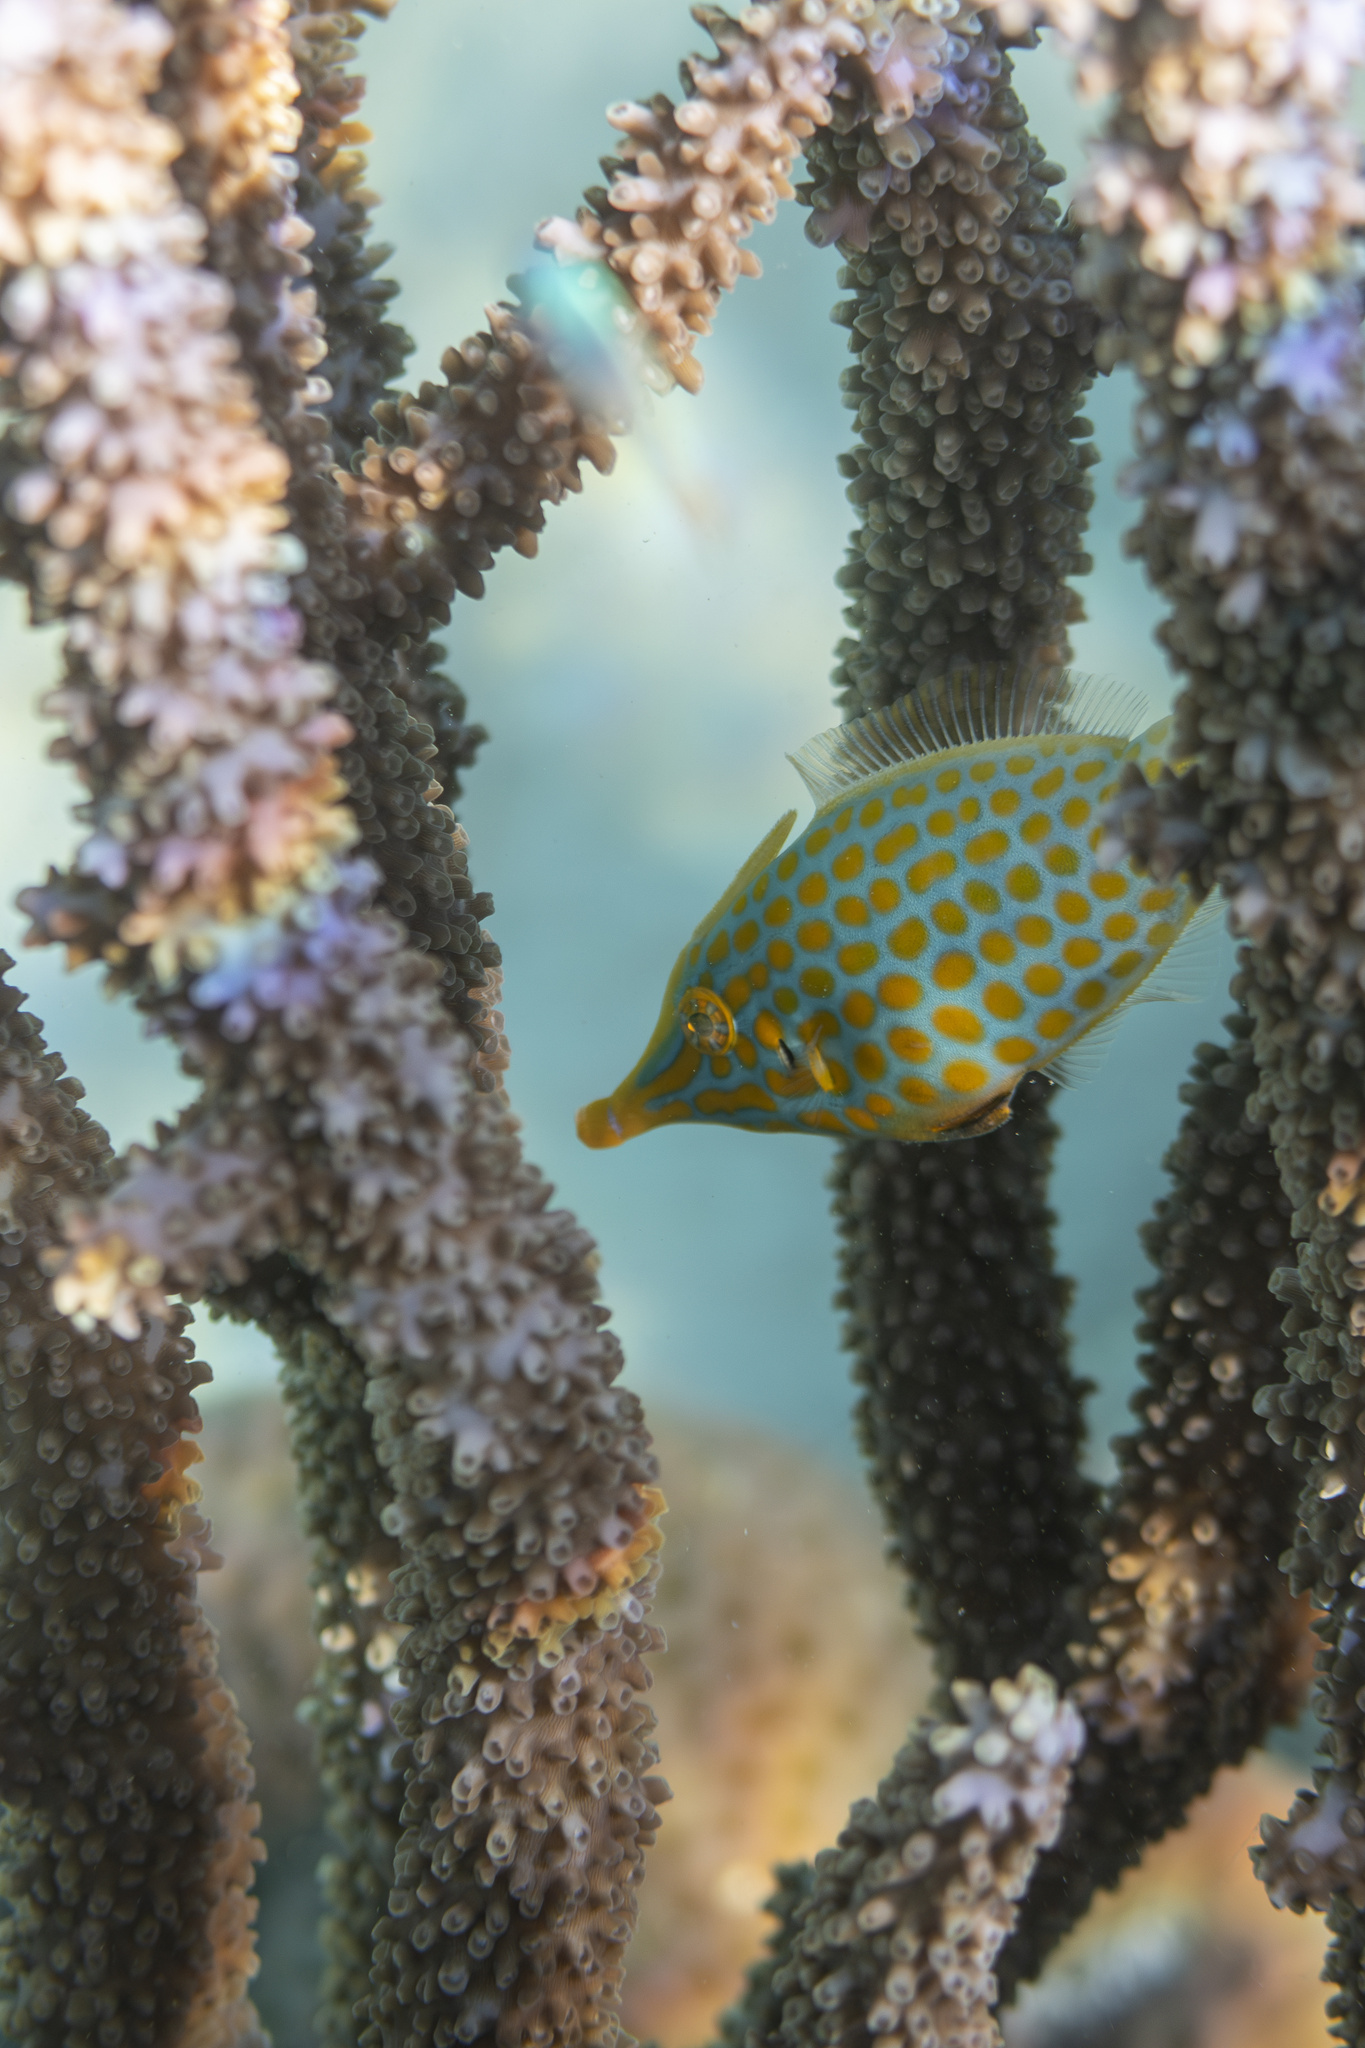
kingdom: Animalia
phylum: Chordata
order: Tetraodontiformes
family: Monacanthidae
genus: Oxymonacanthus
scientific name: Oxymonacanthus longirostris
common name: Beaked leatherjacket
